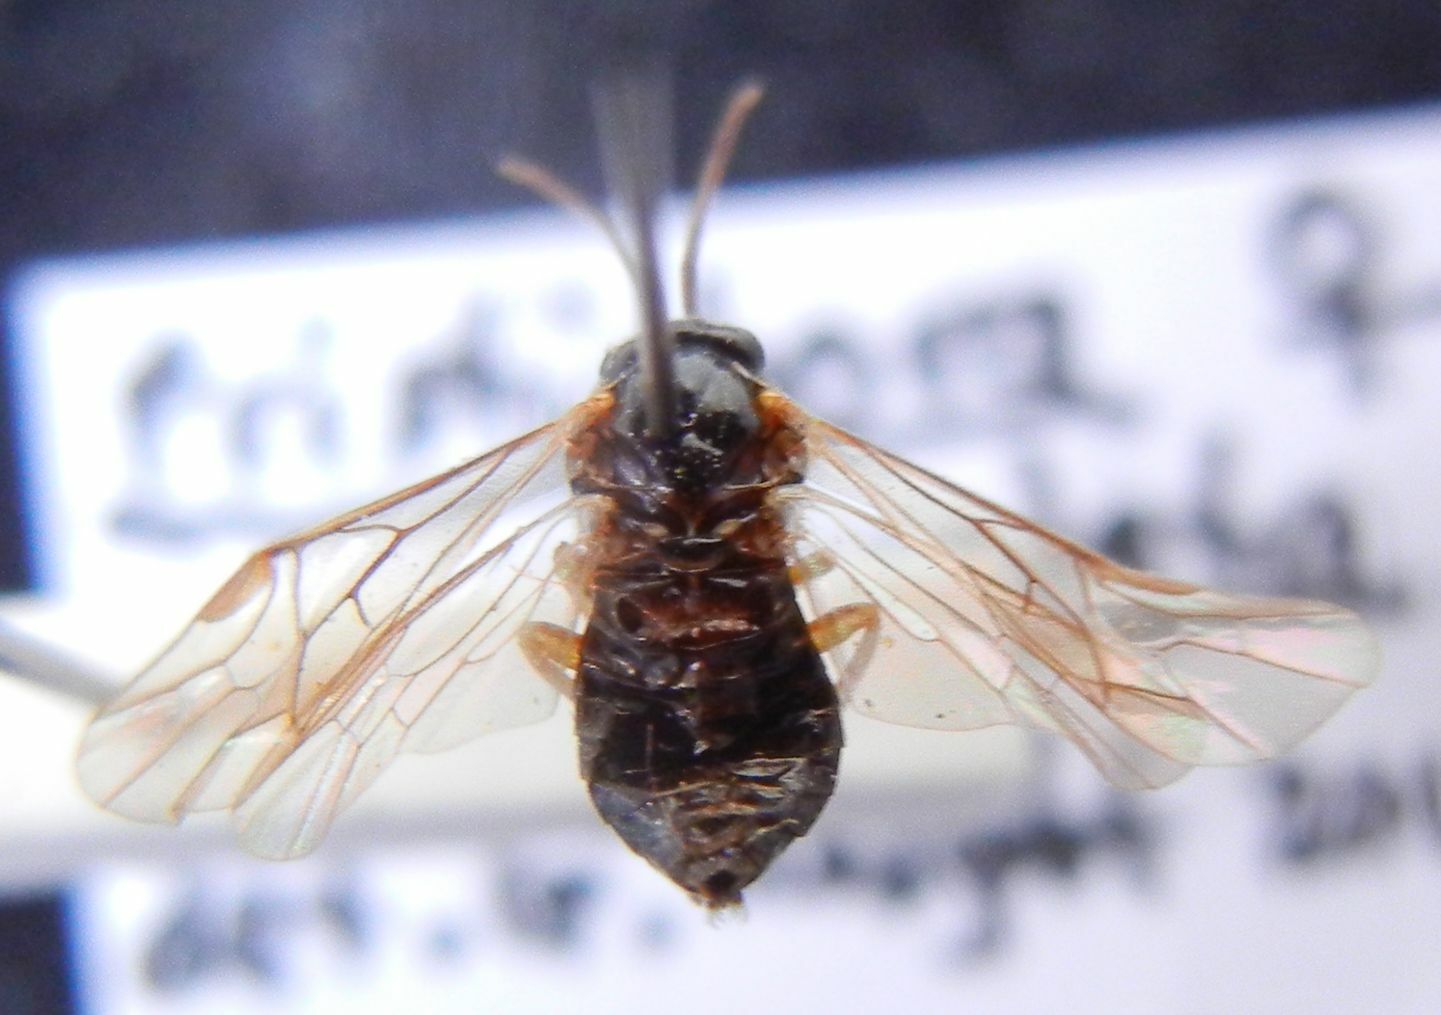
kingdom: Animalia
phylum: Arthropoda
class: Insecta
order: Hymenoptera
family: Tenthredinidae
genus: Pristiphora
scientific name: Pristiphora appendiculata
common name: Tenthredid wasp
